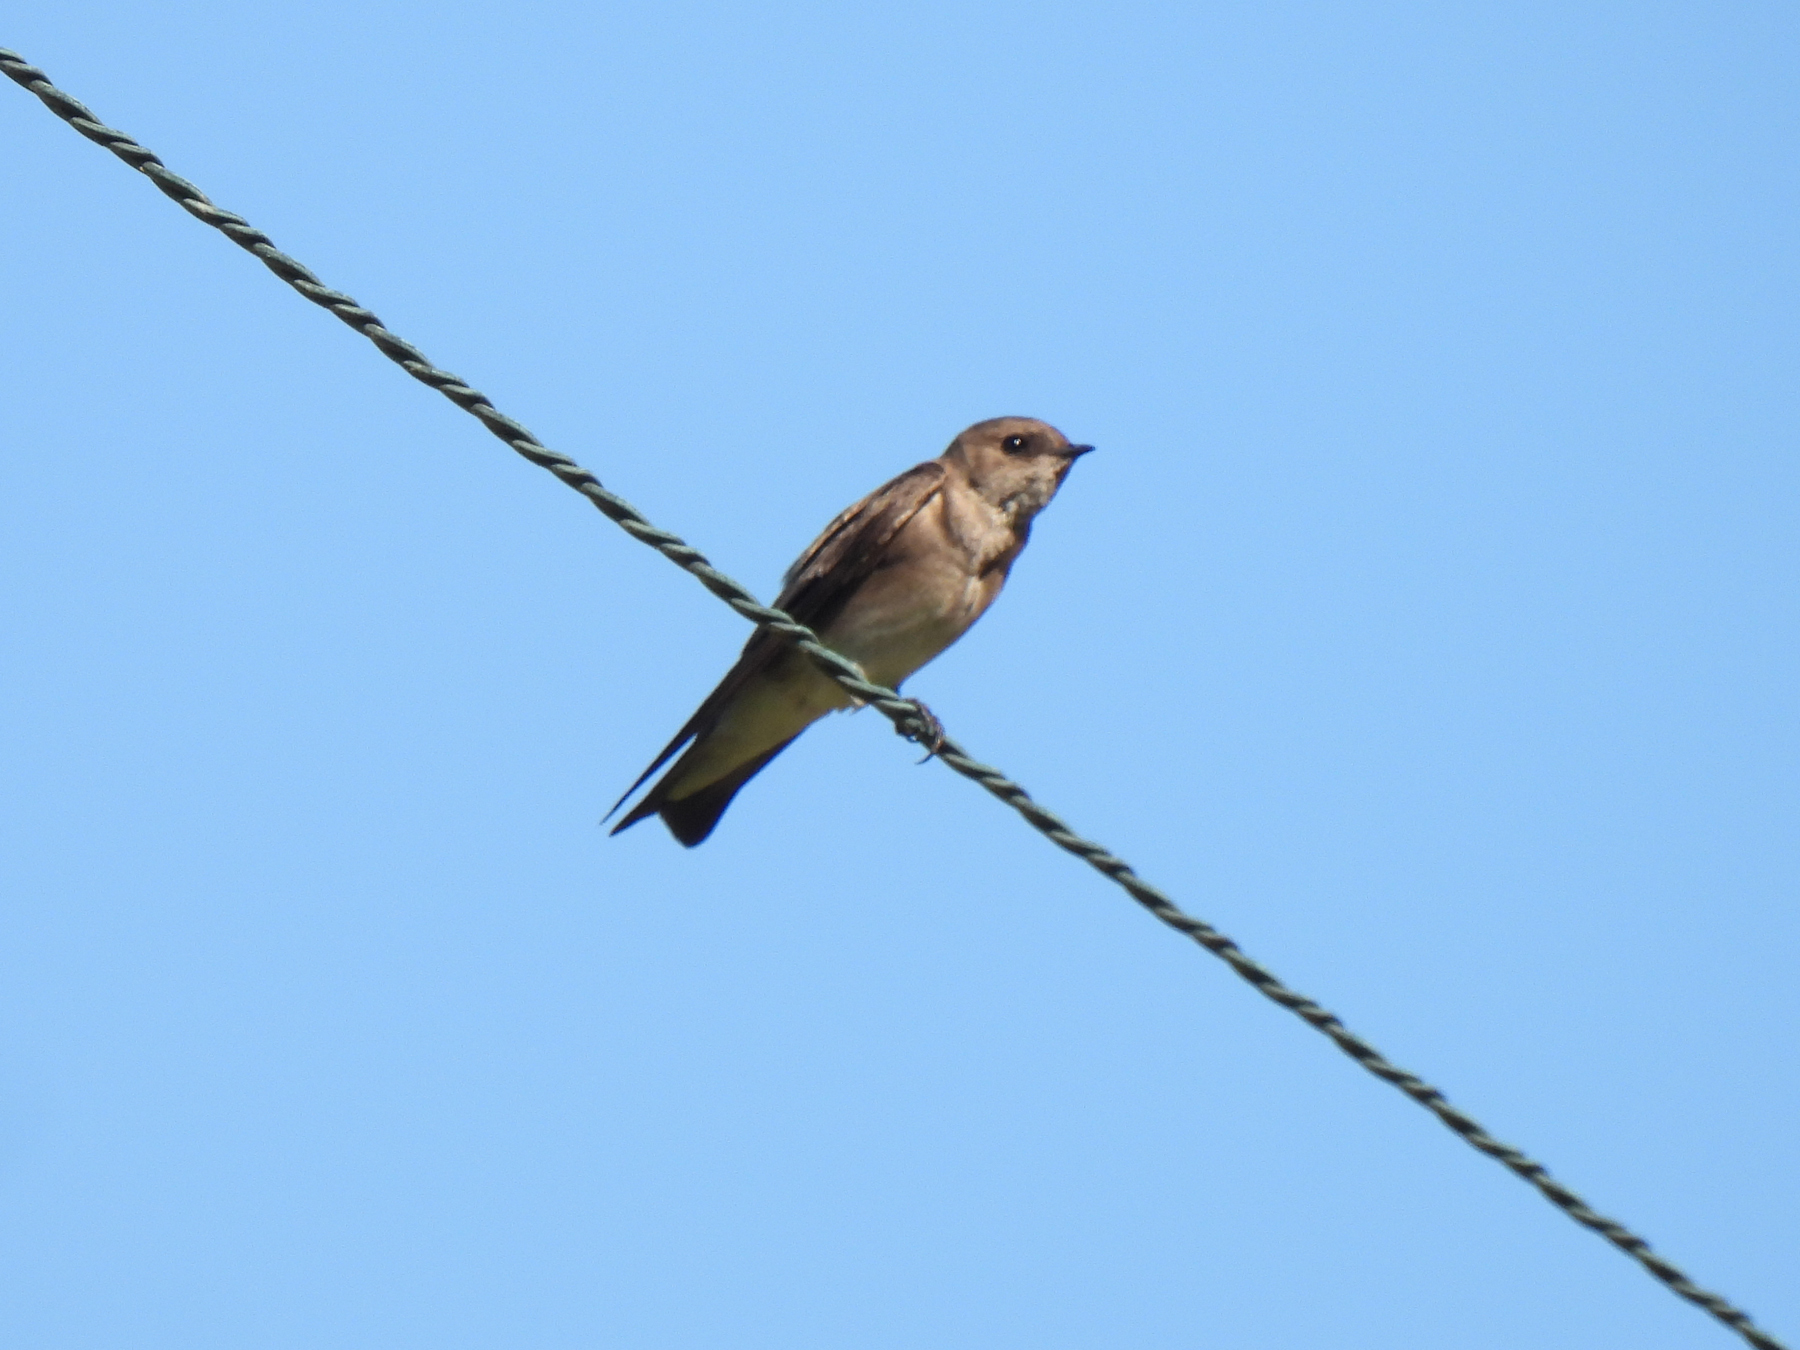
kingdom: Animalia
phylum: Chordata
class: Aves
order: Passeriformes
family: Hirundinidae
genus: Stelgidopteryx
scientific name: Stelgidopteryx serripennis
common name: Northern rough-winged swallow
